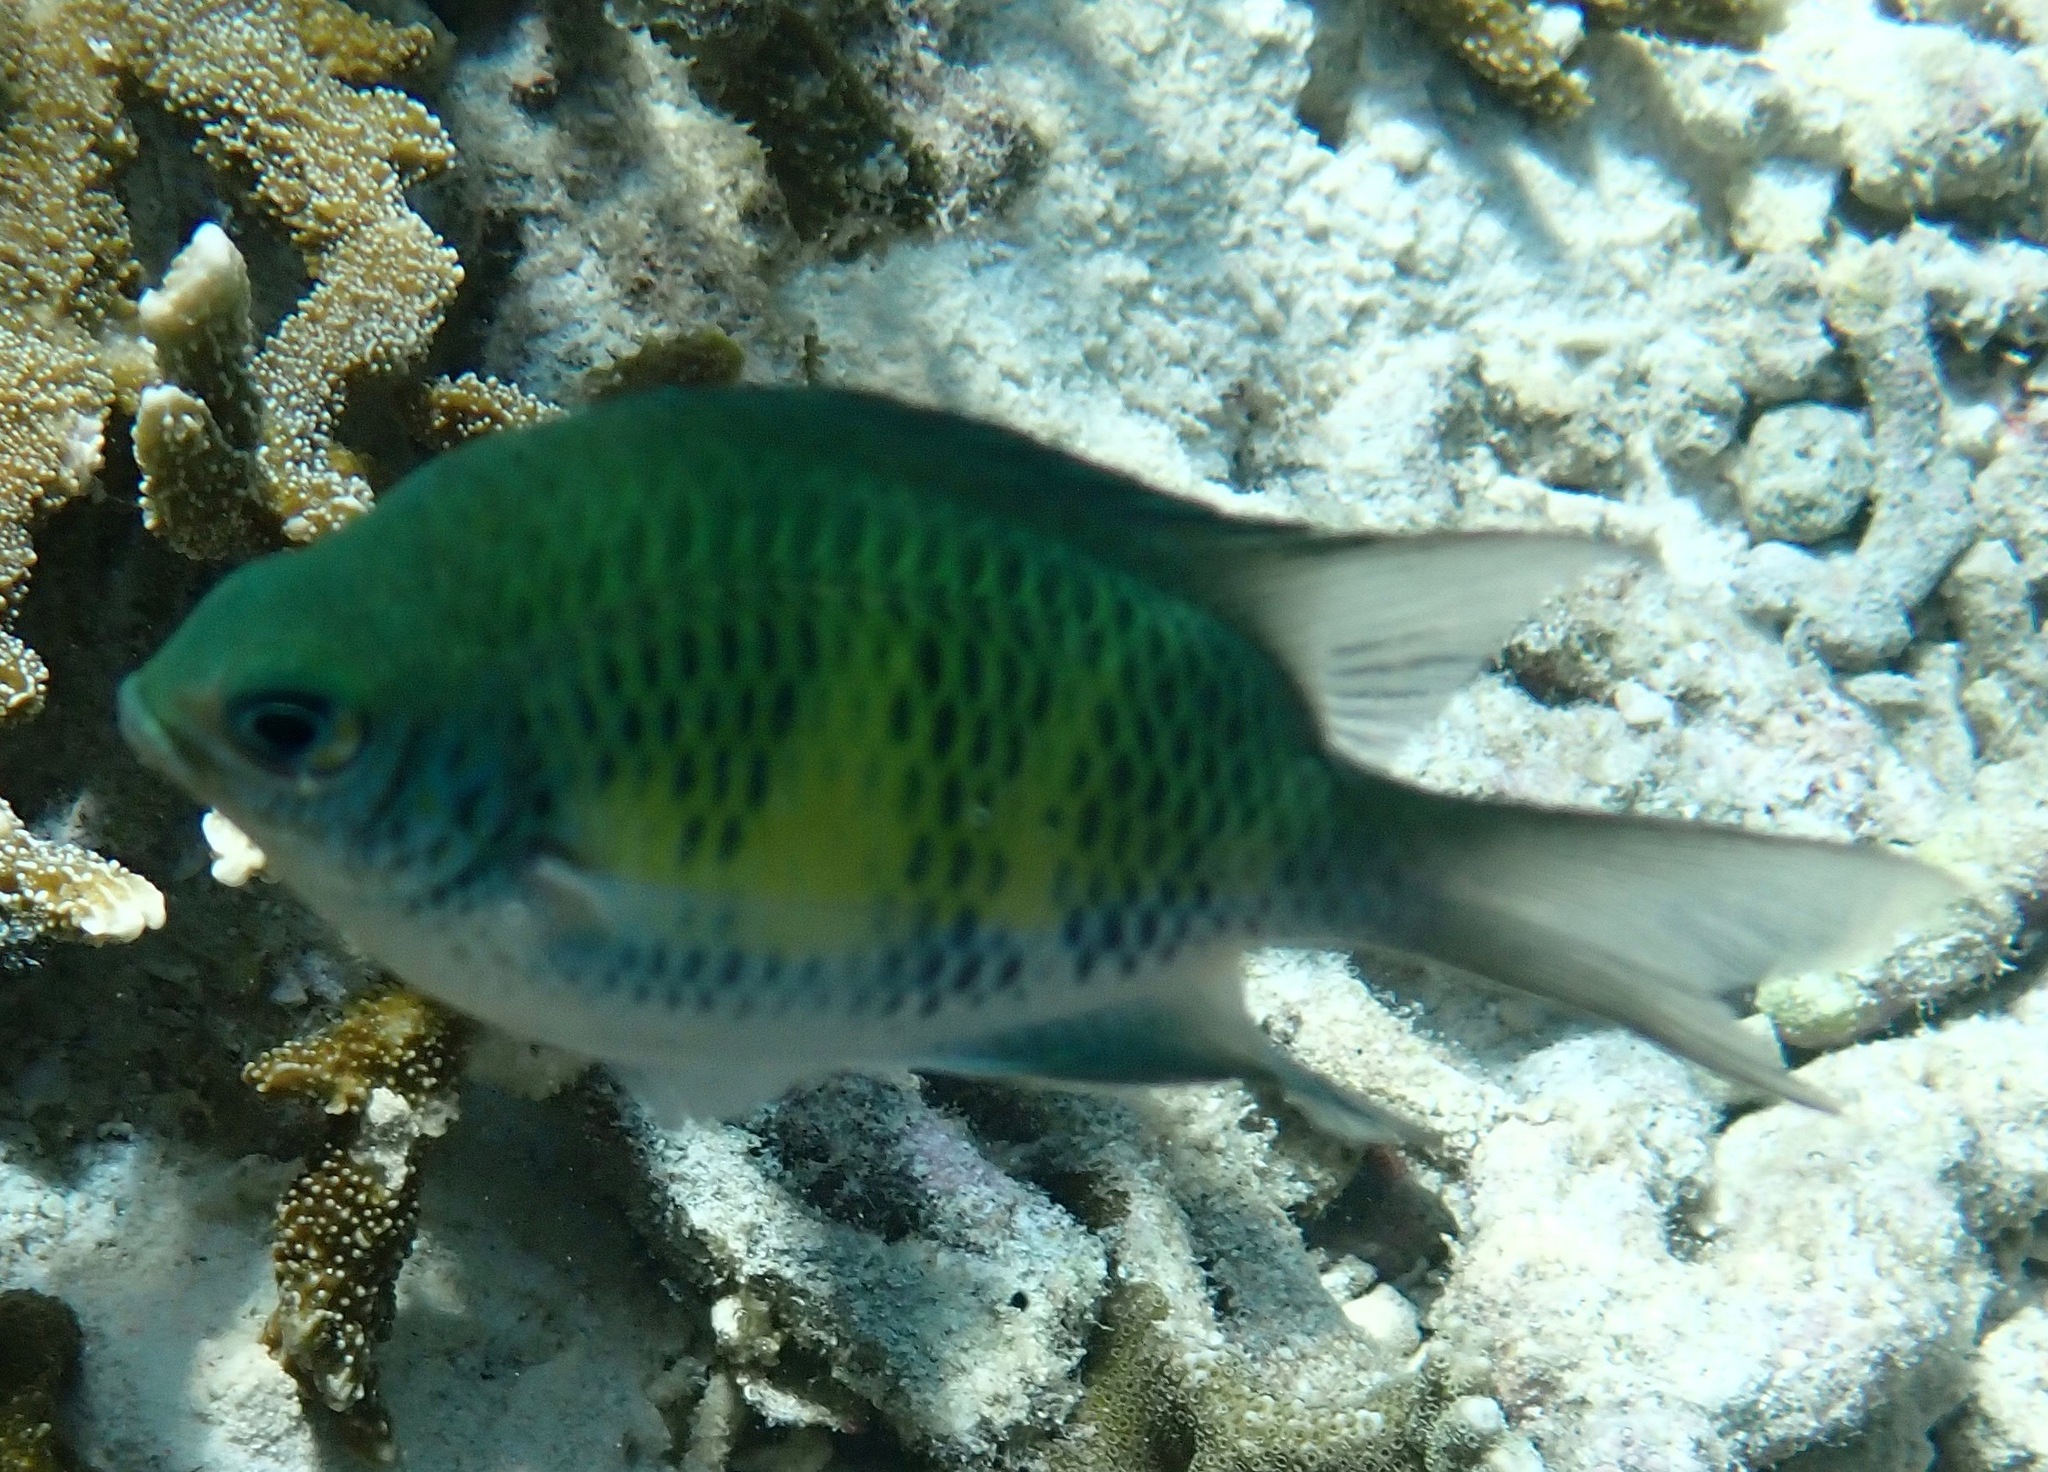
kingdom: Animalia
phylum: Chordata
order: Perciformes
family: Pomacentridae
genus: Amblyglyphidodon
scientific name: Amblyglyphidodon curacao
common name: Staghorn damsel
